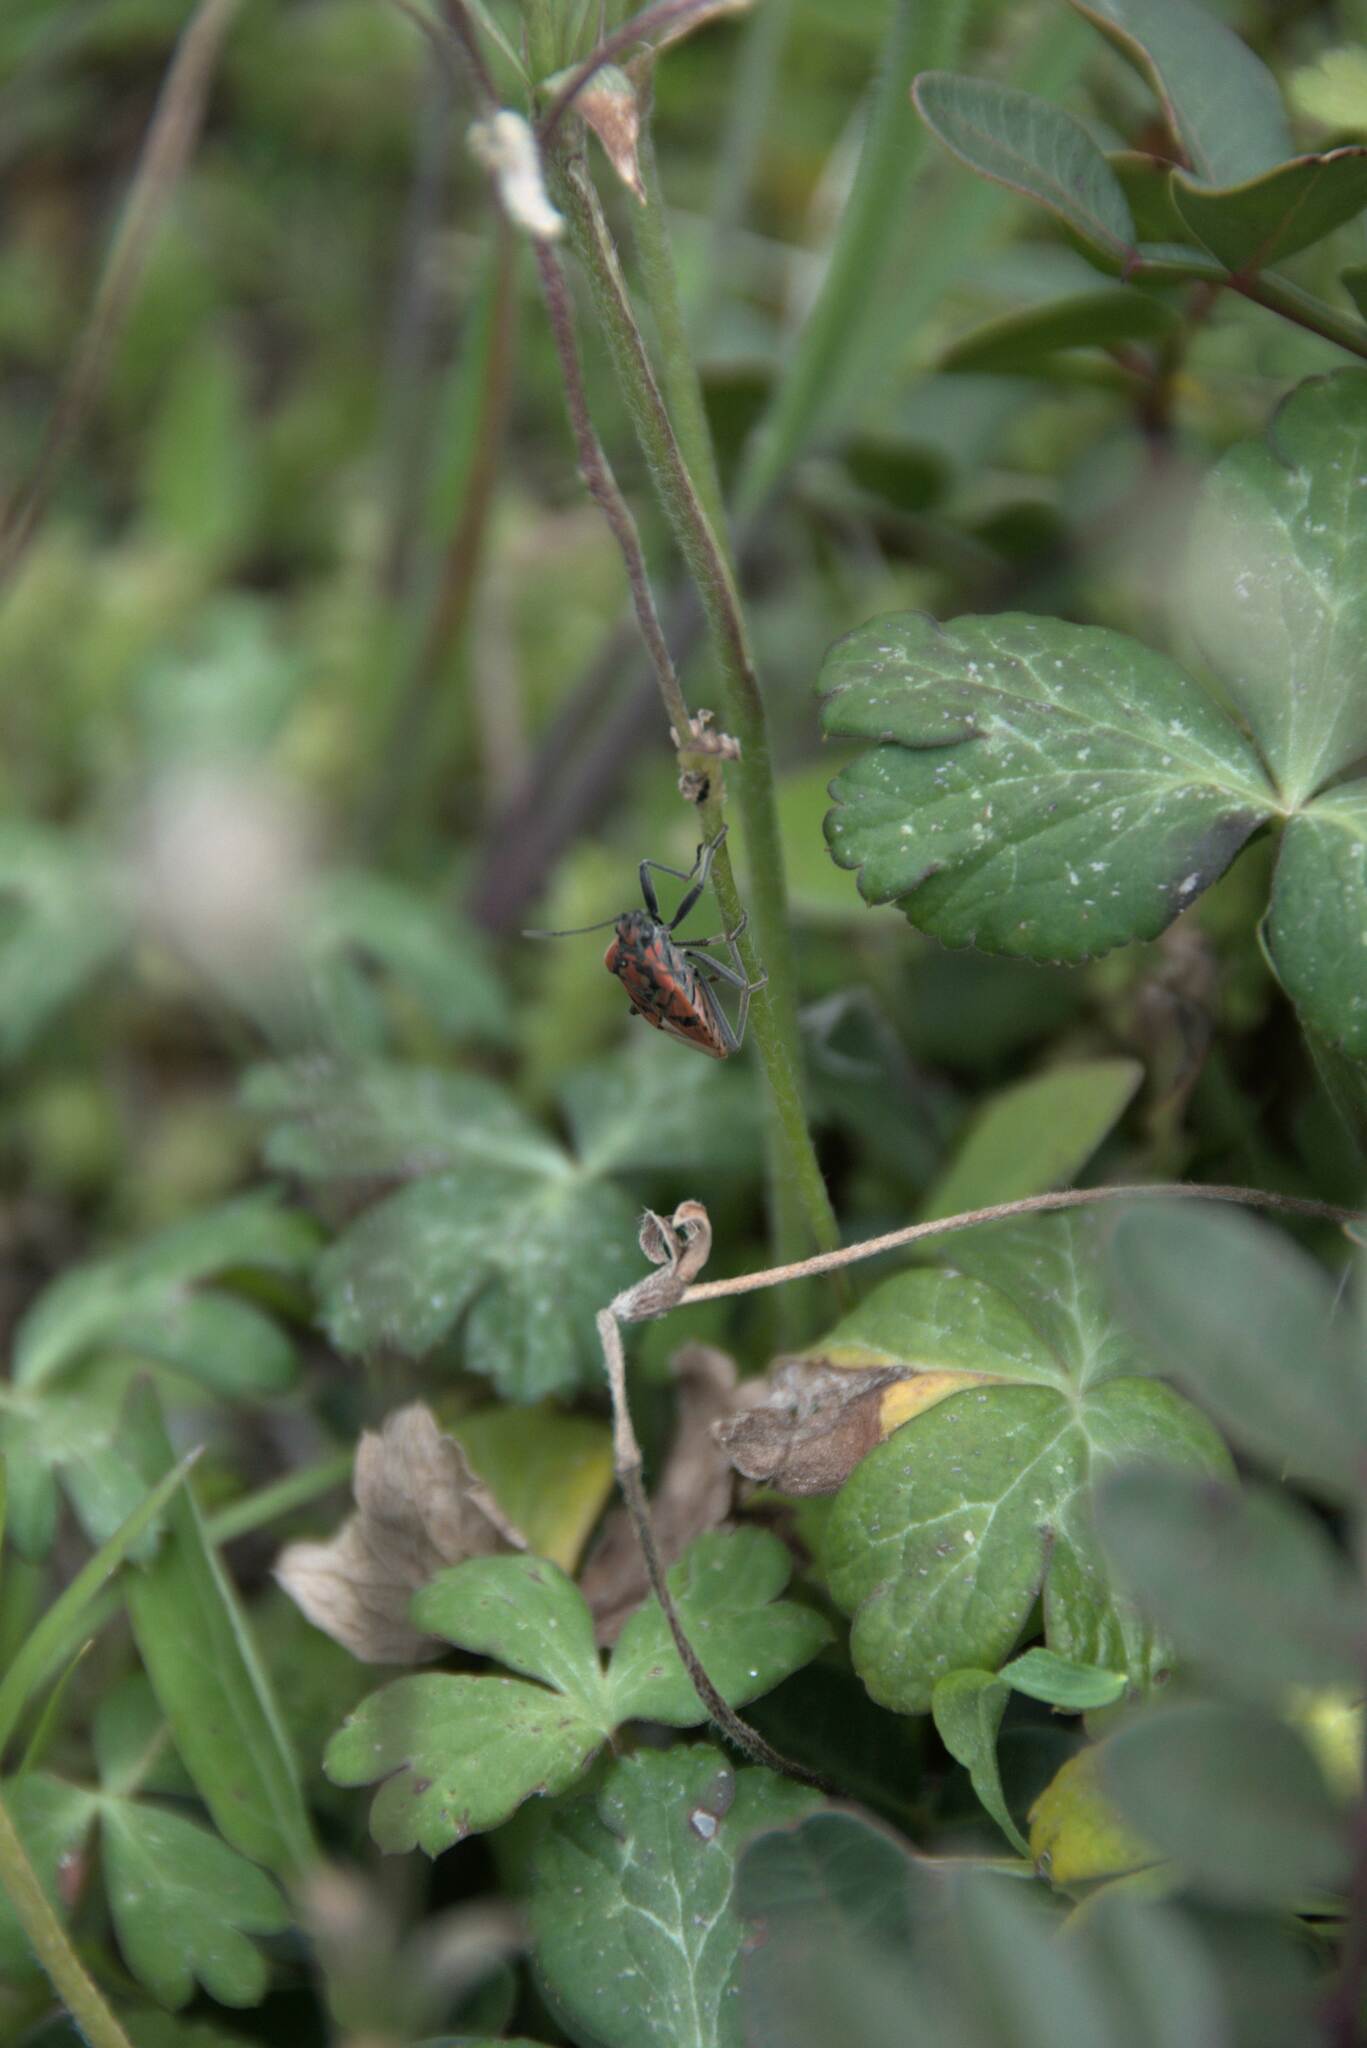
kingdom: Animalia
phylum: Arthropoda
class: Insecta
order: Hemiptera
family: Lygaeidae
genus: Spilostethus
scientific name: Spilostethus pandurus
